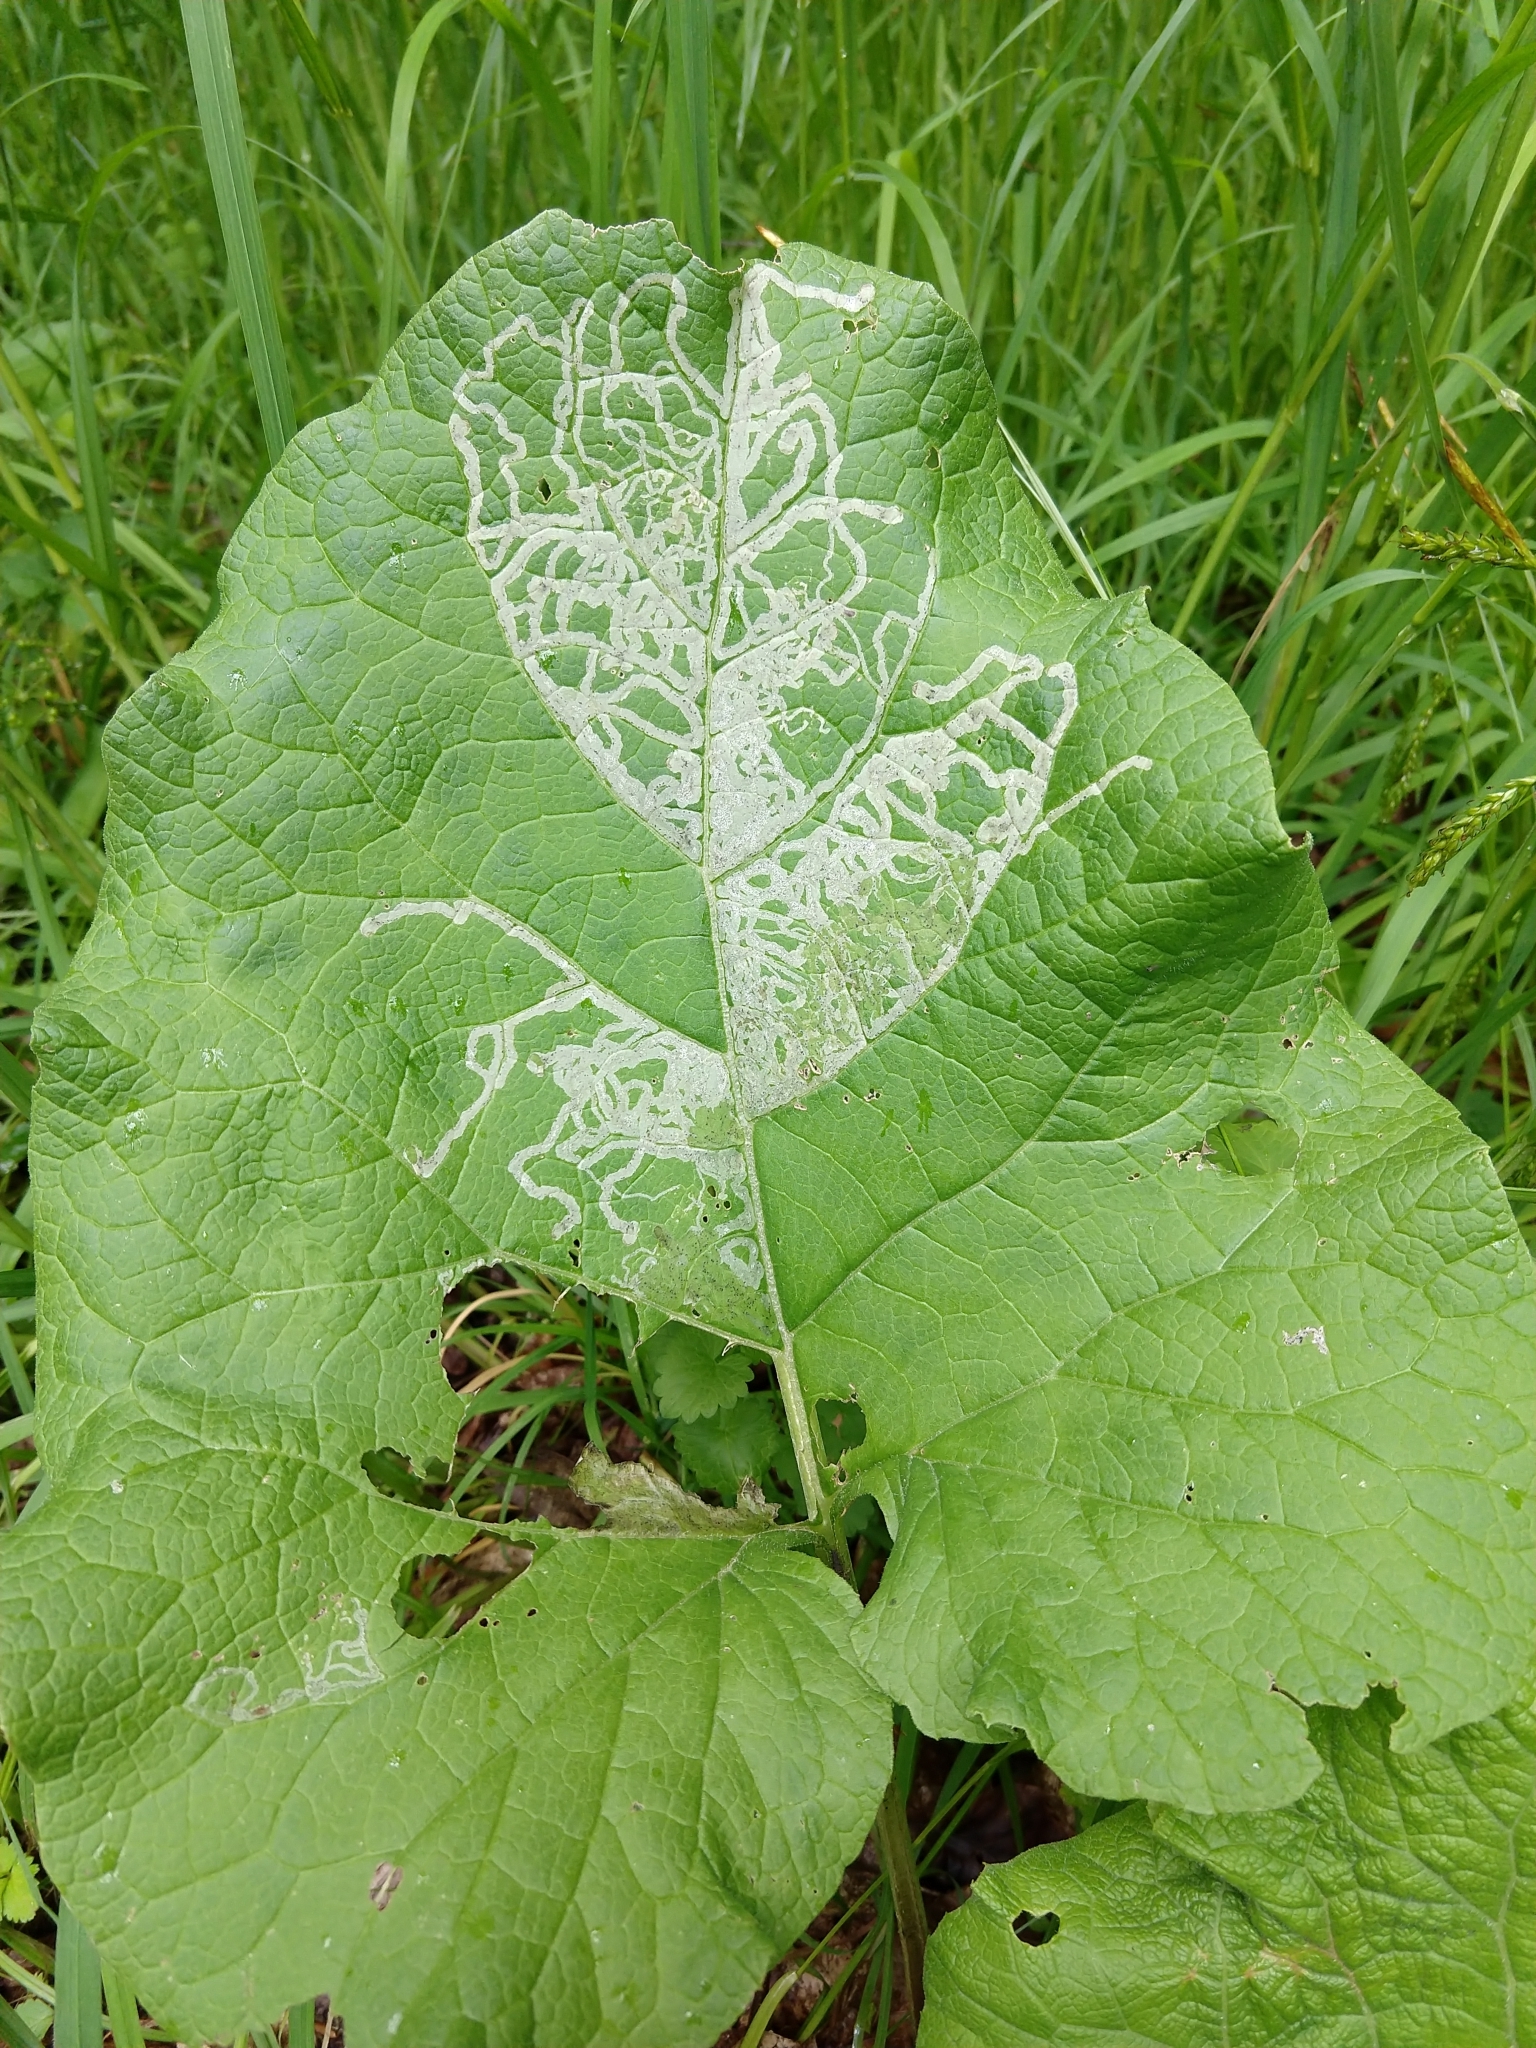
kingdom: Animalia
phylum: Arthropoda
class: Insecta
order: Diptera
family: Agromyzidae
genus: Phytomyza
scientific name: Phytomyza lappae
